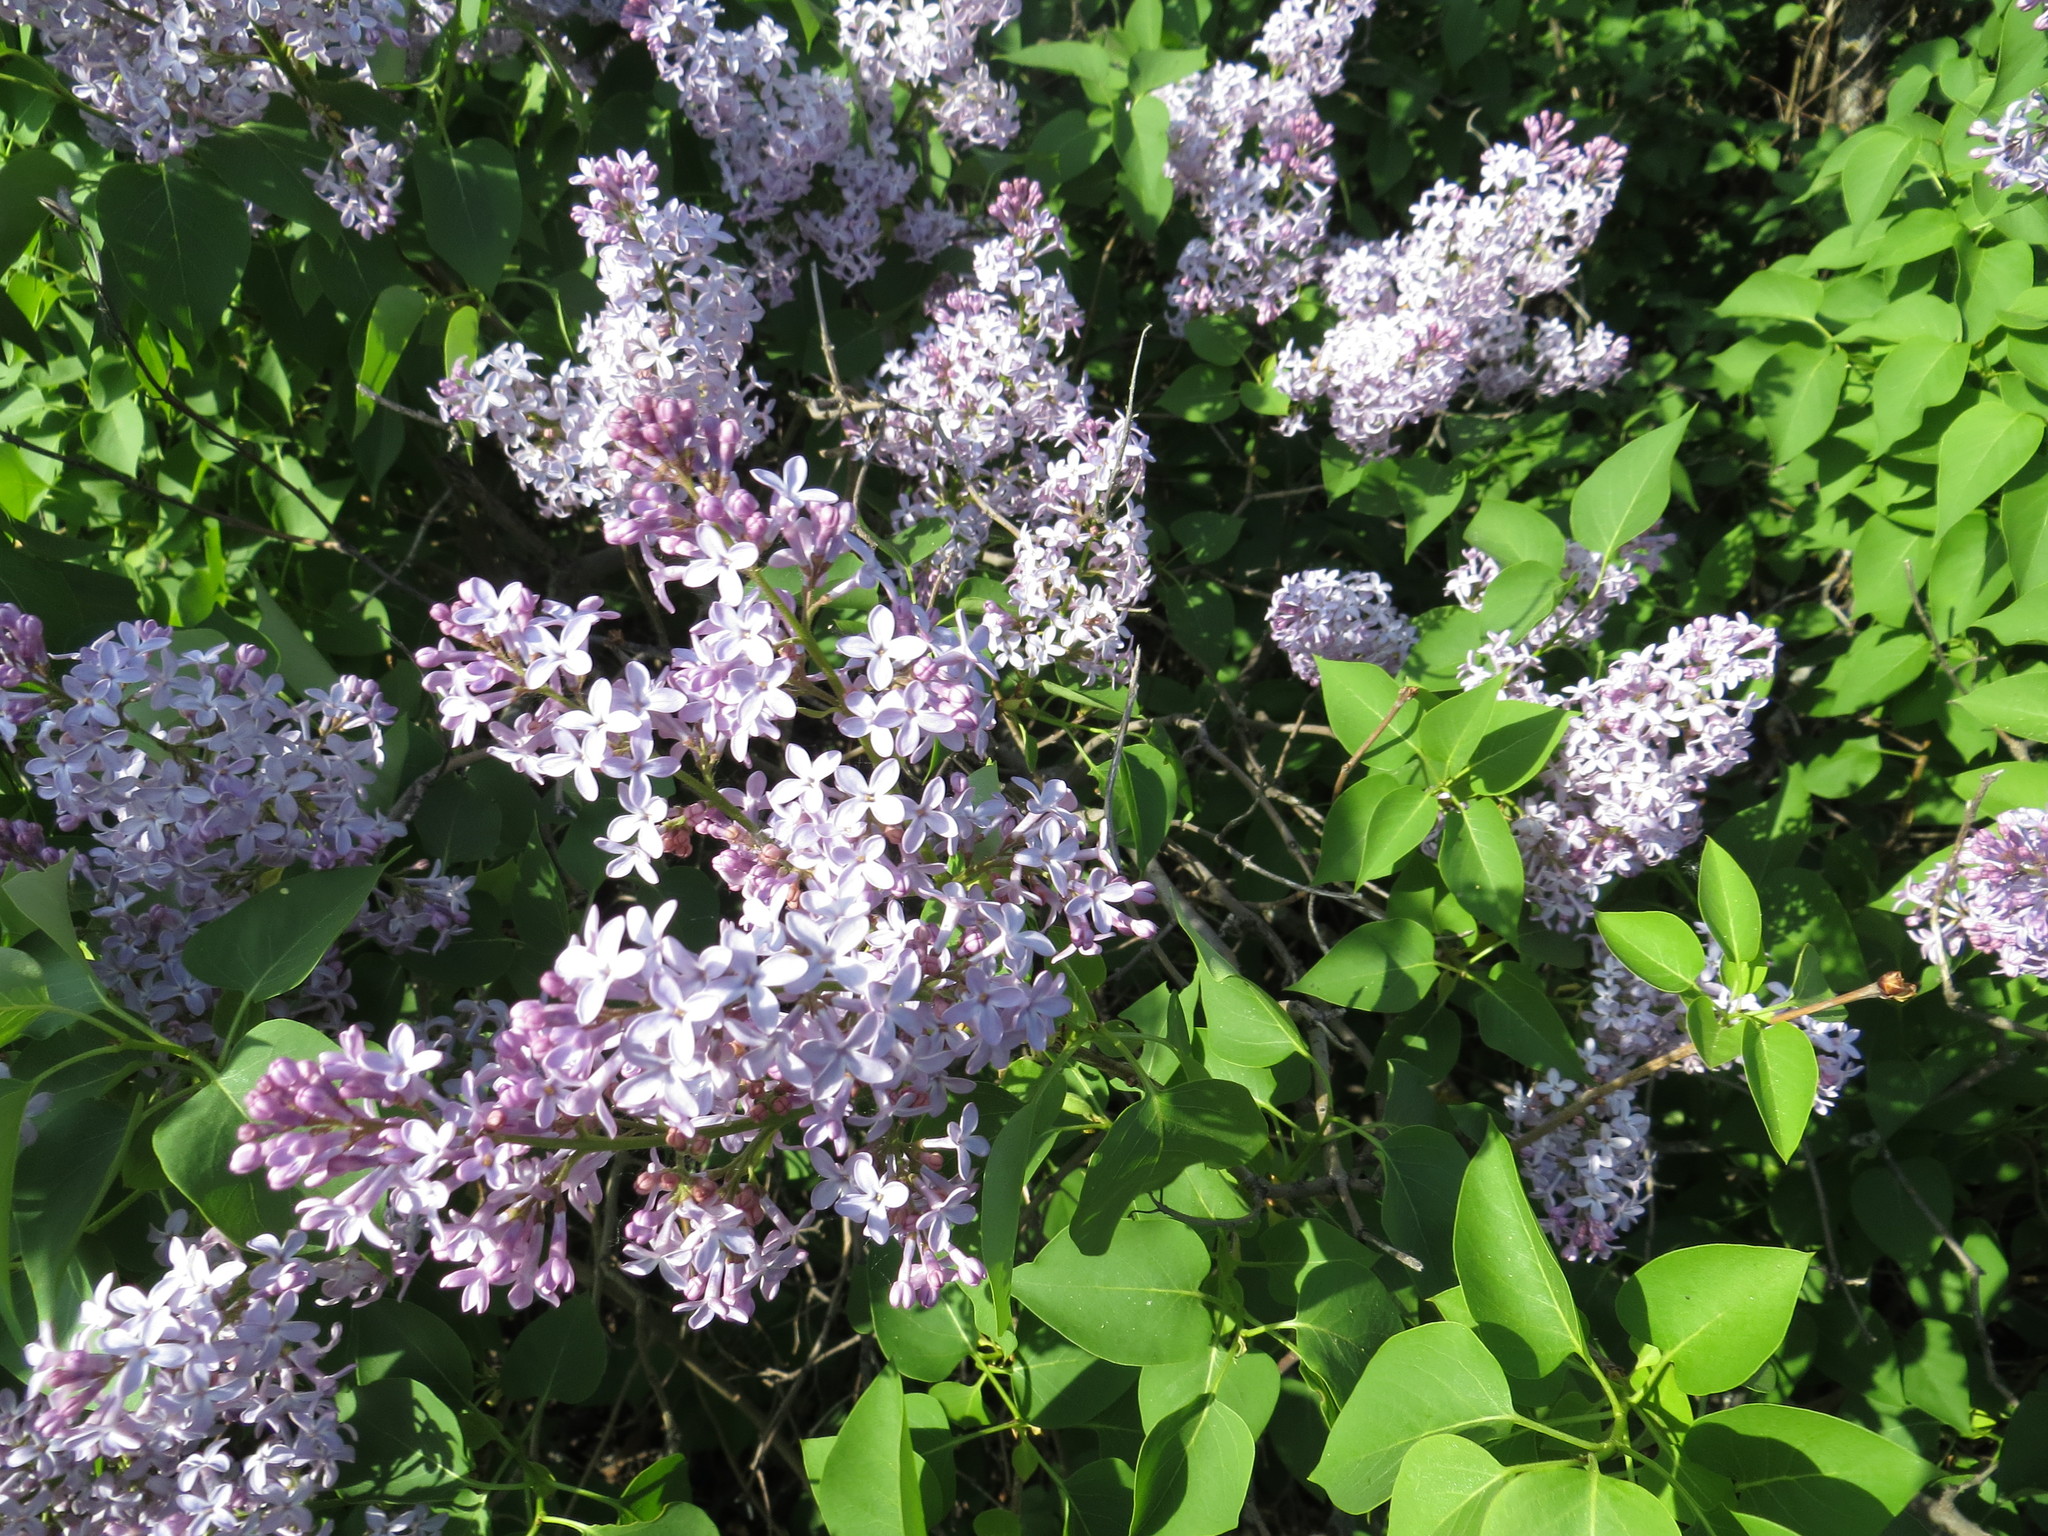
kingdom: Plantae
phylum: Tracheophyta
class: Magnoliopsida
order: Lamiales
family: Oleaceae
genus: Syringa
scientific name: Syringa vulgaris
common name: Common lilac
